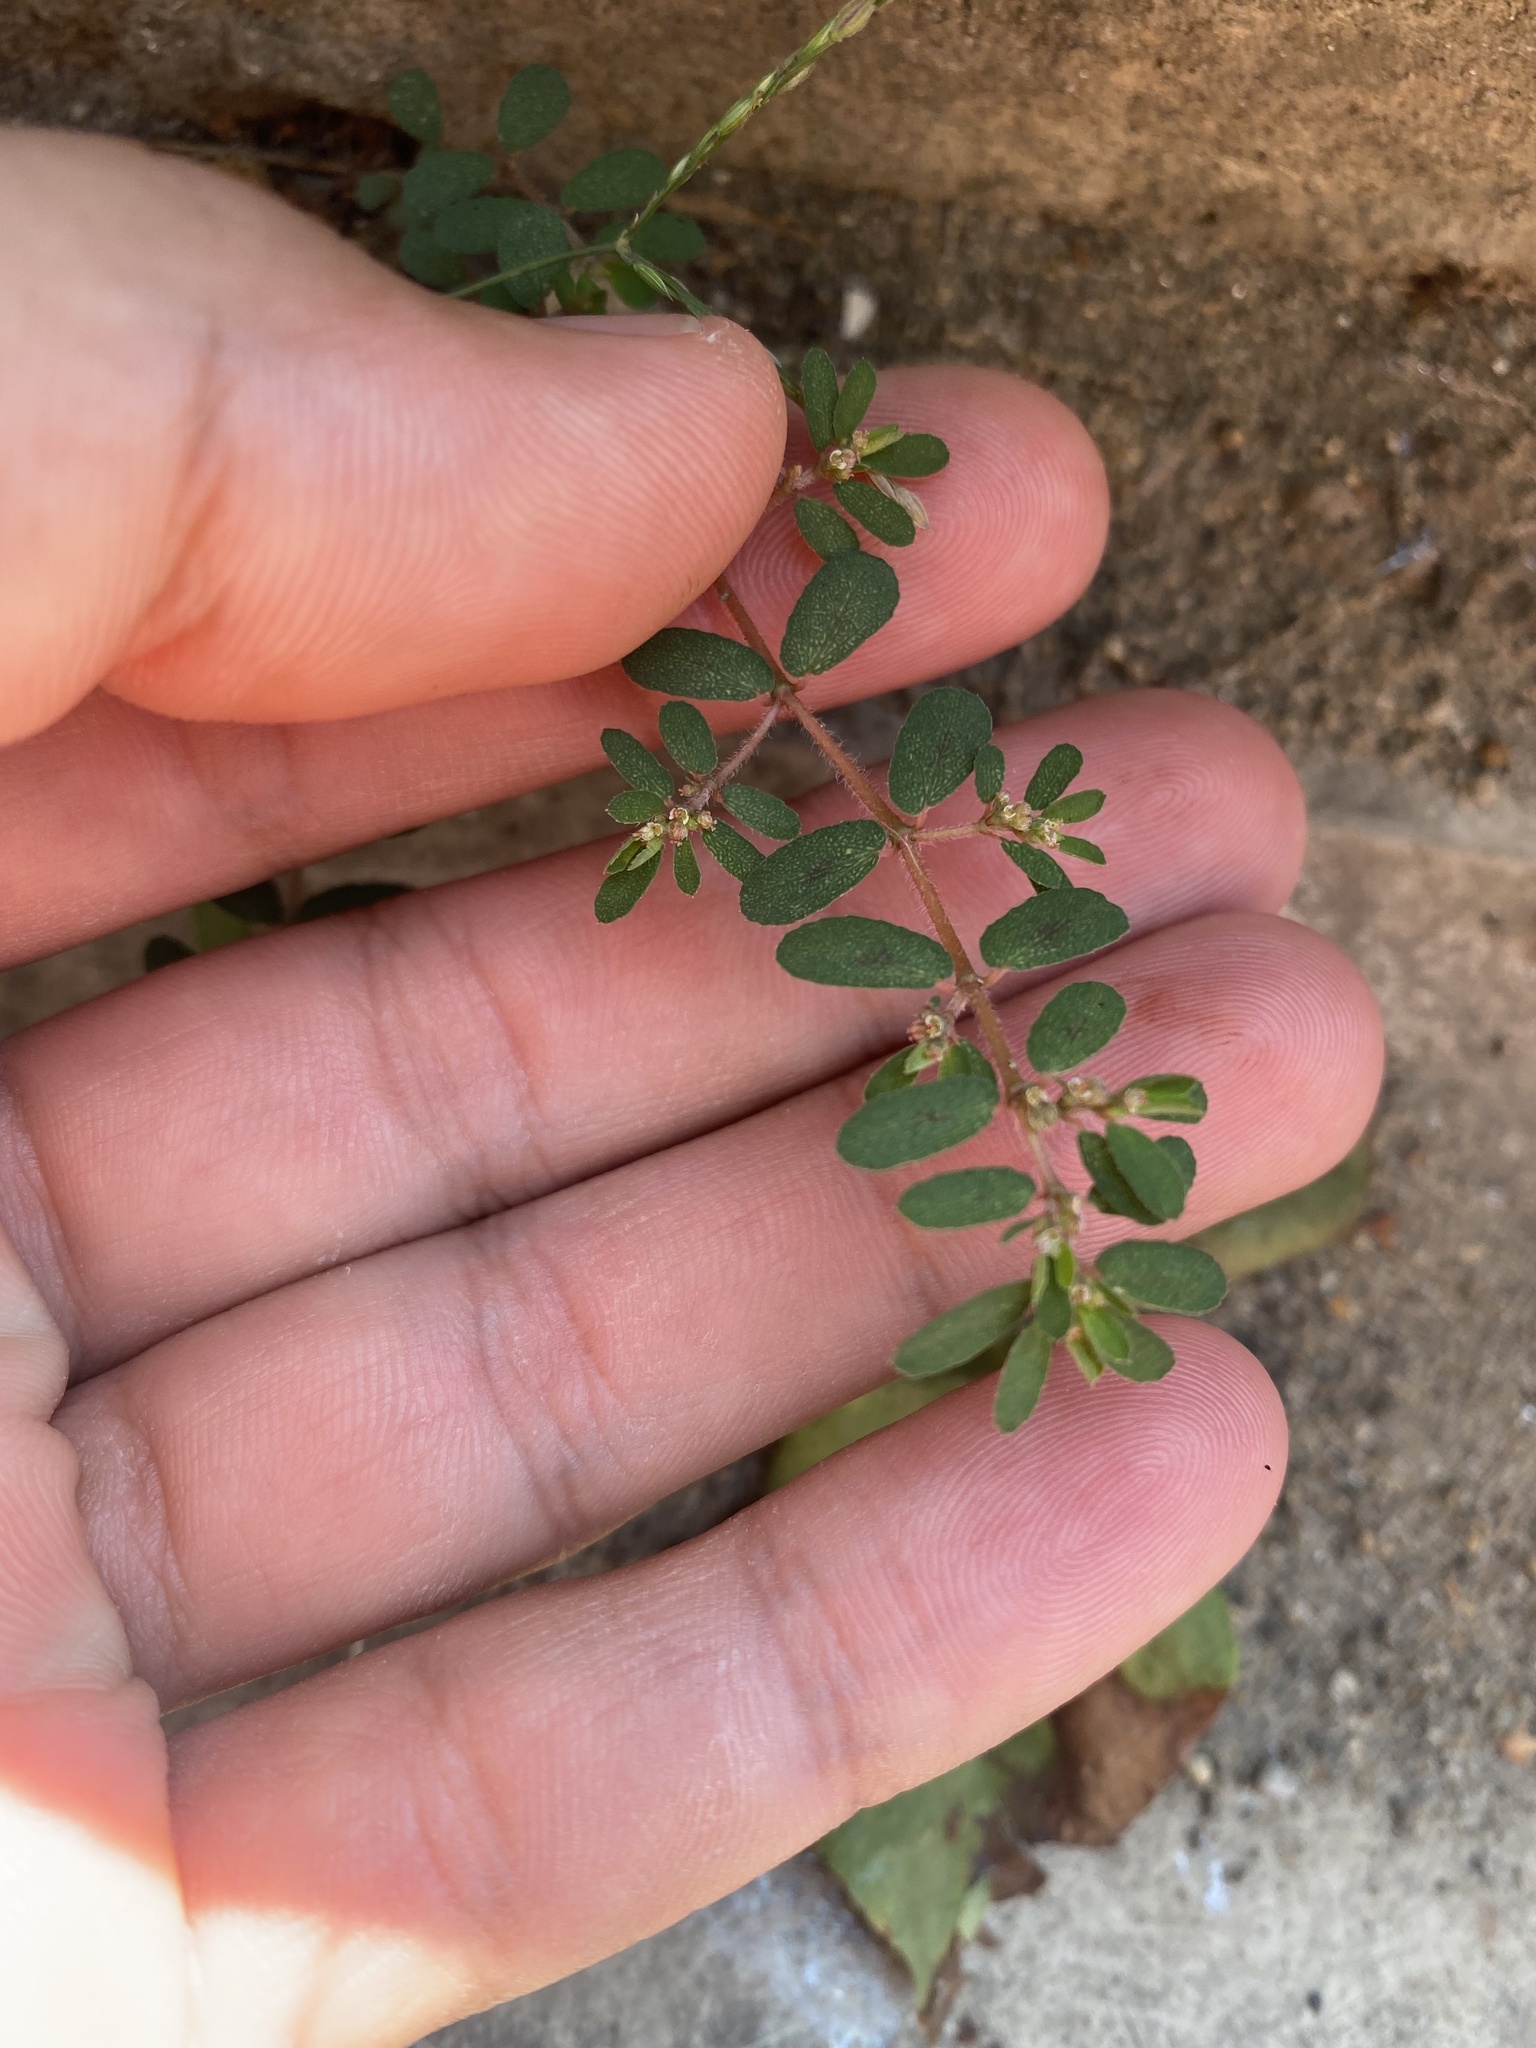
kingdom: Plantae
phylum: Tracheophyta
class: Magnoliopsida
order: Malpighiales
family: Euphorbiaceae
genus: Euphorbia
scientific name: Euphorbia maculata
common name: Spotted spurge
